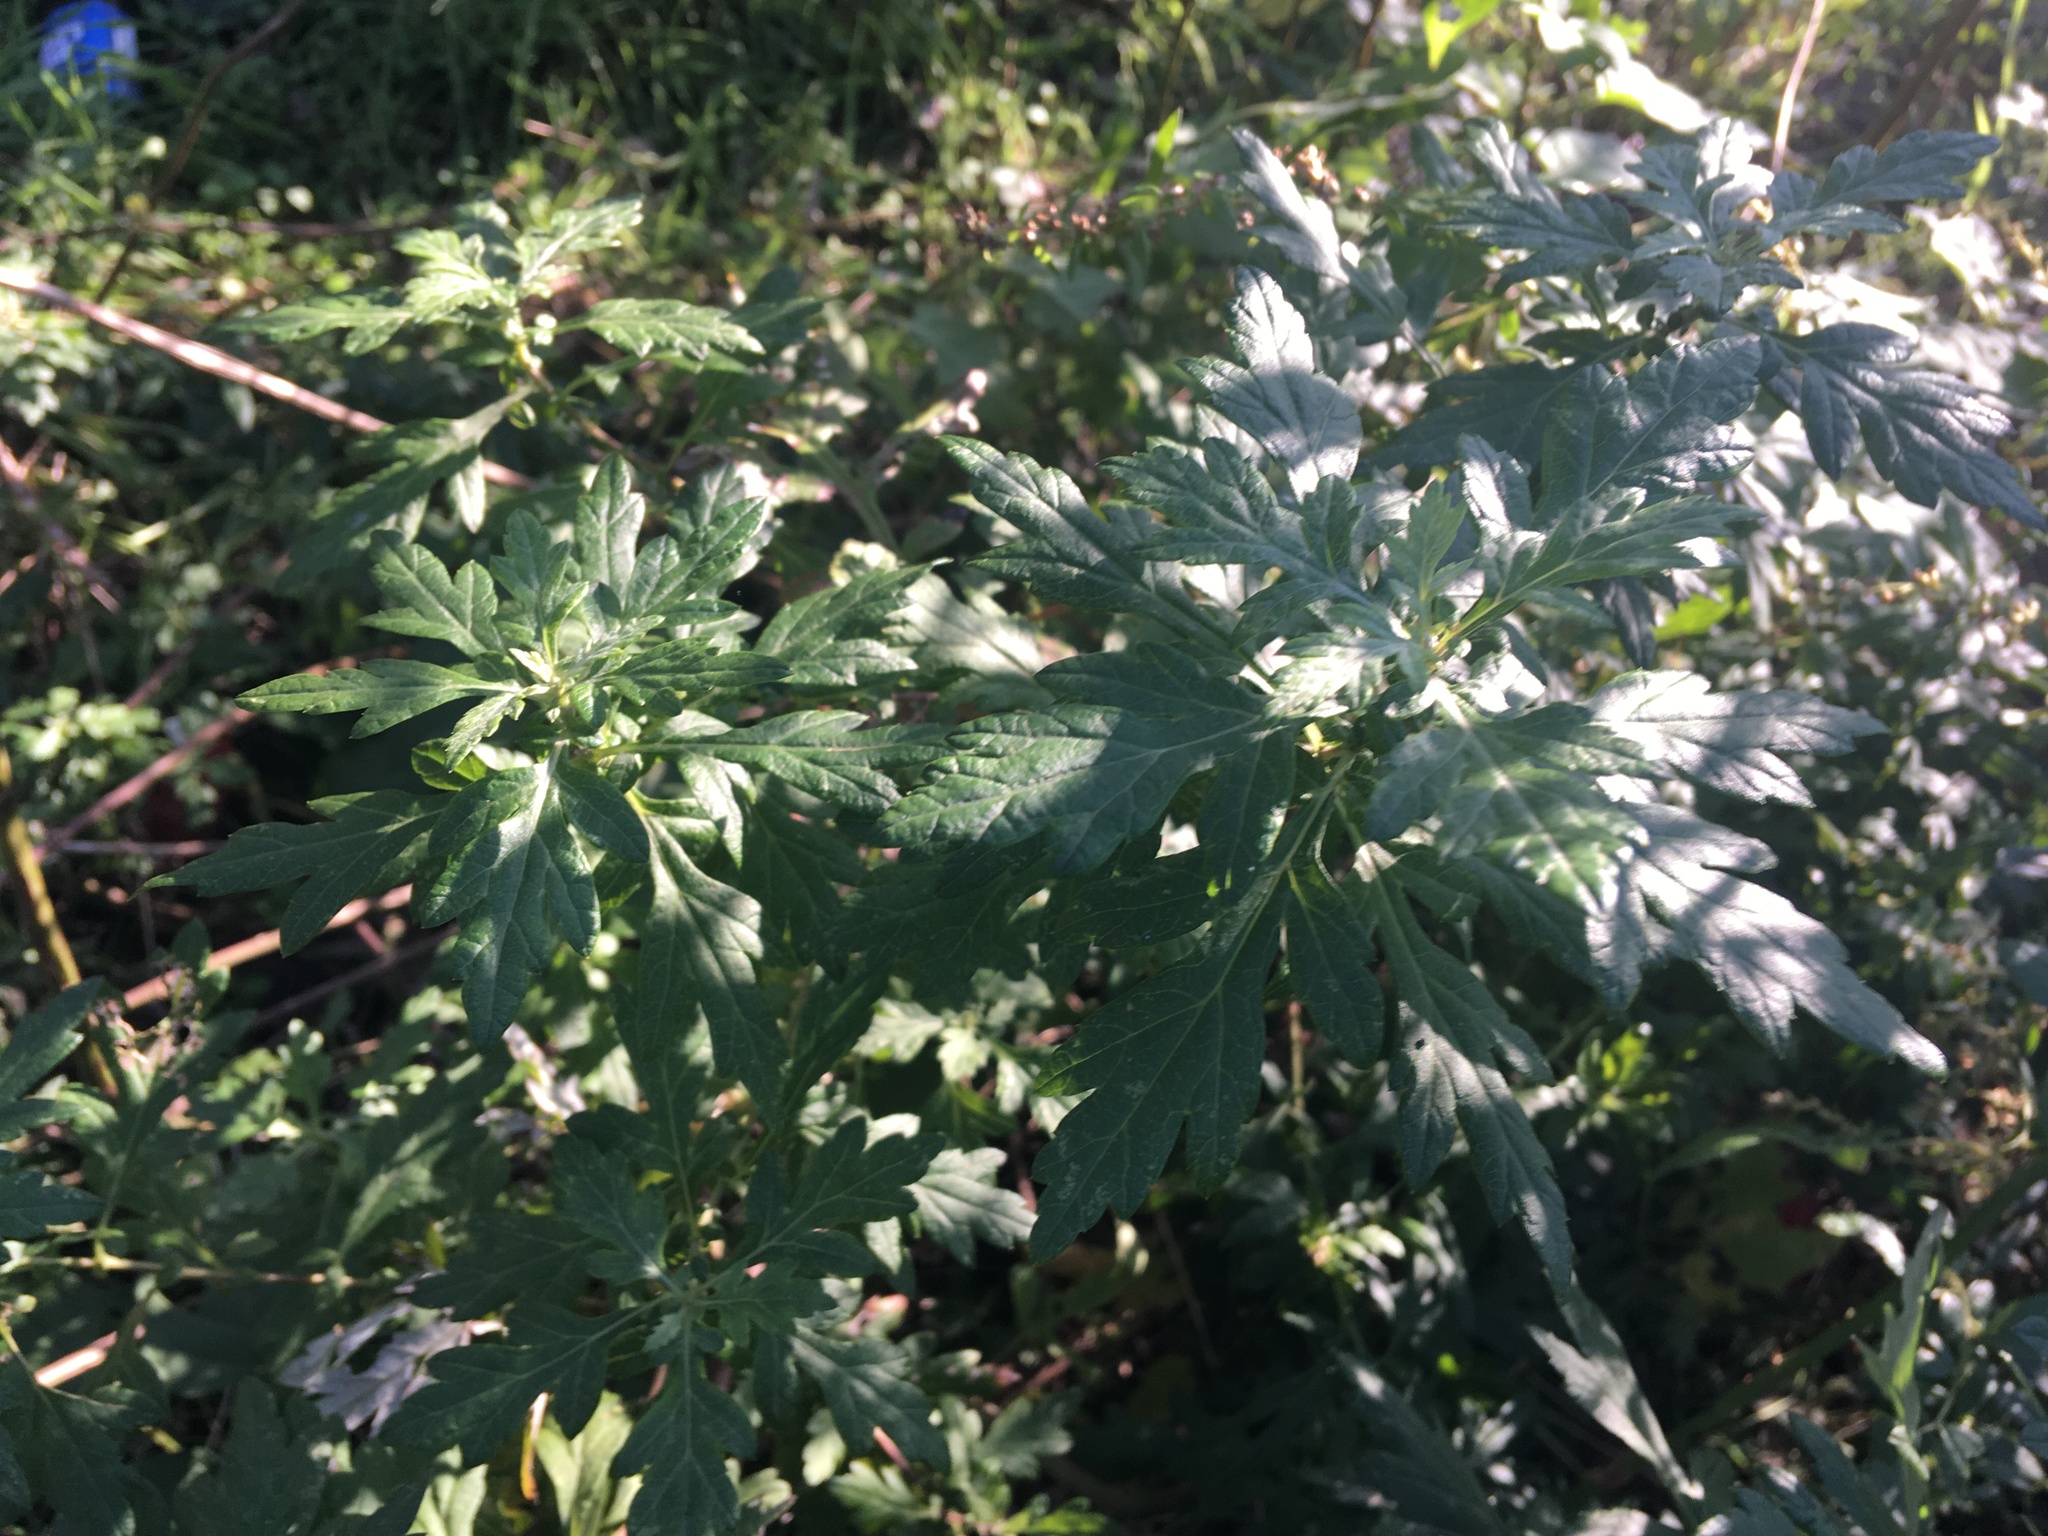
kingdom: Plantae
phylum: Tracheophyta
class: Magnoliopsida
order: Asterales
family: Asteraceae
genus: Artemisia
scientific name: Artemisia vulgaris
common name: Mugwort
